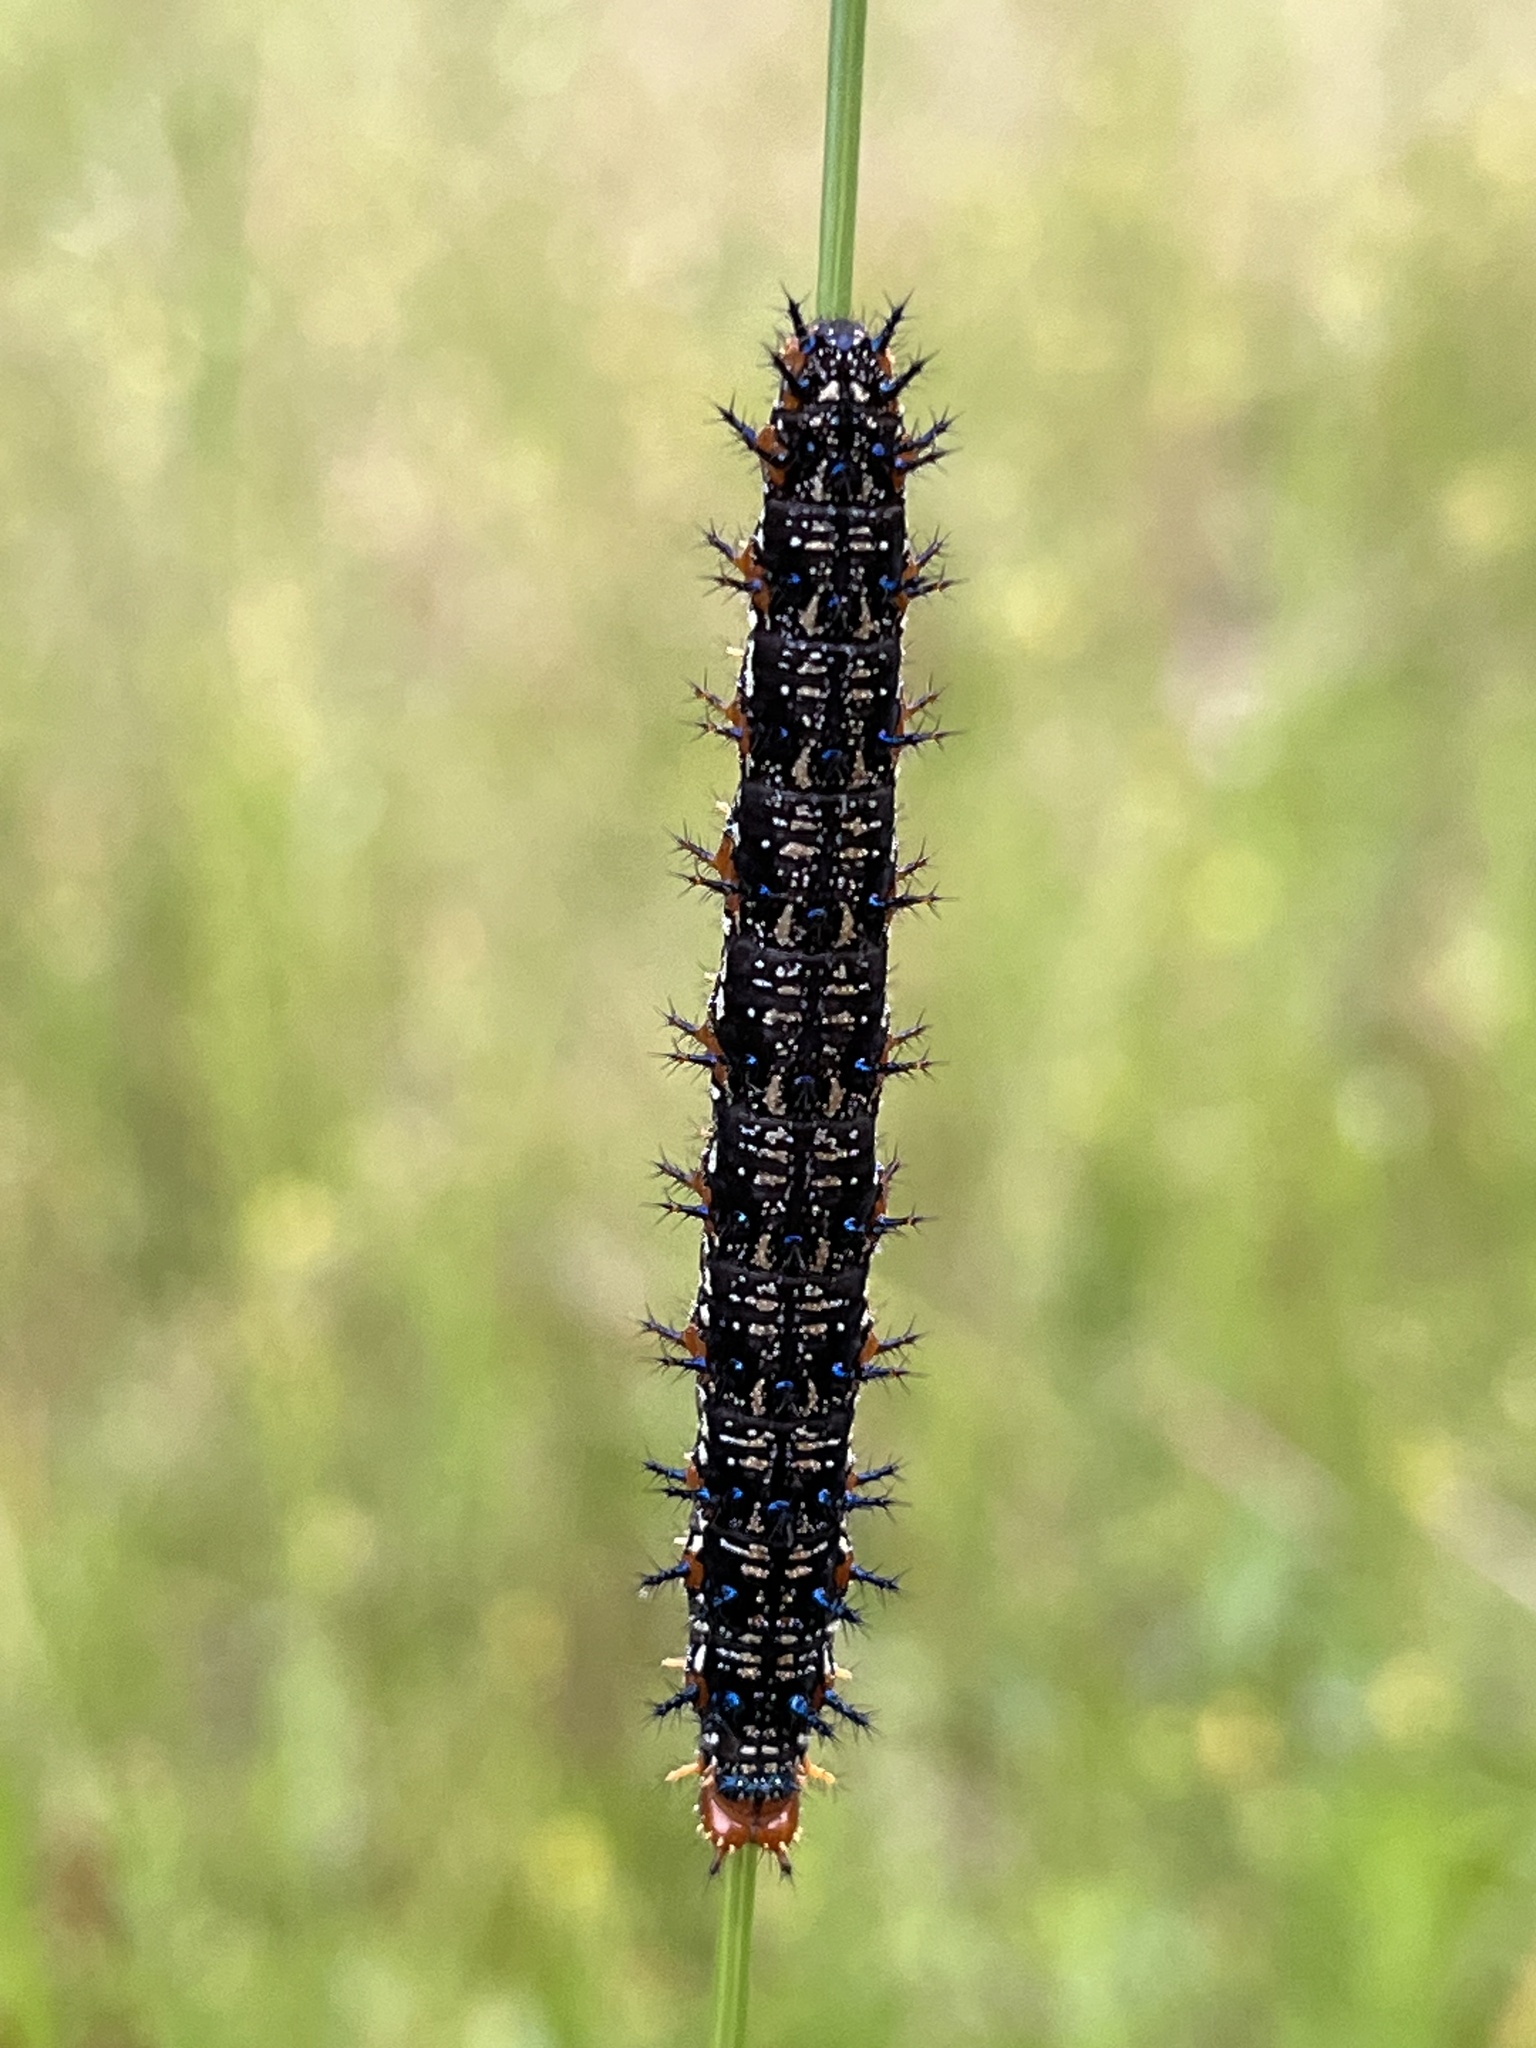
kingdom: Animalia
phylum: Arthropoda
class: Insecta
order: Lepidoptera
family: Nymphalidae
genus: Junonia
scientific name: Junonia coenia
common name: Common buckeye
